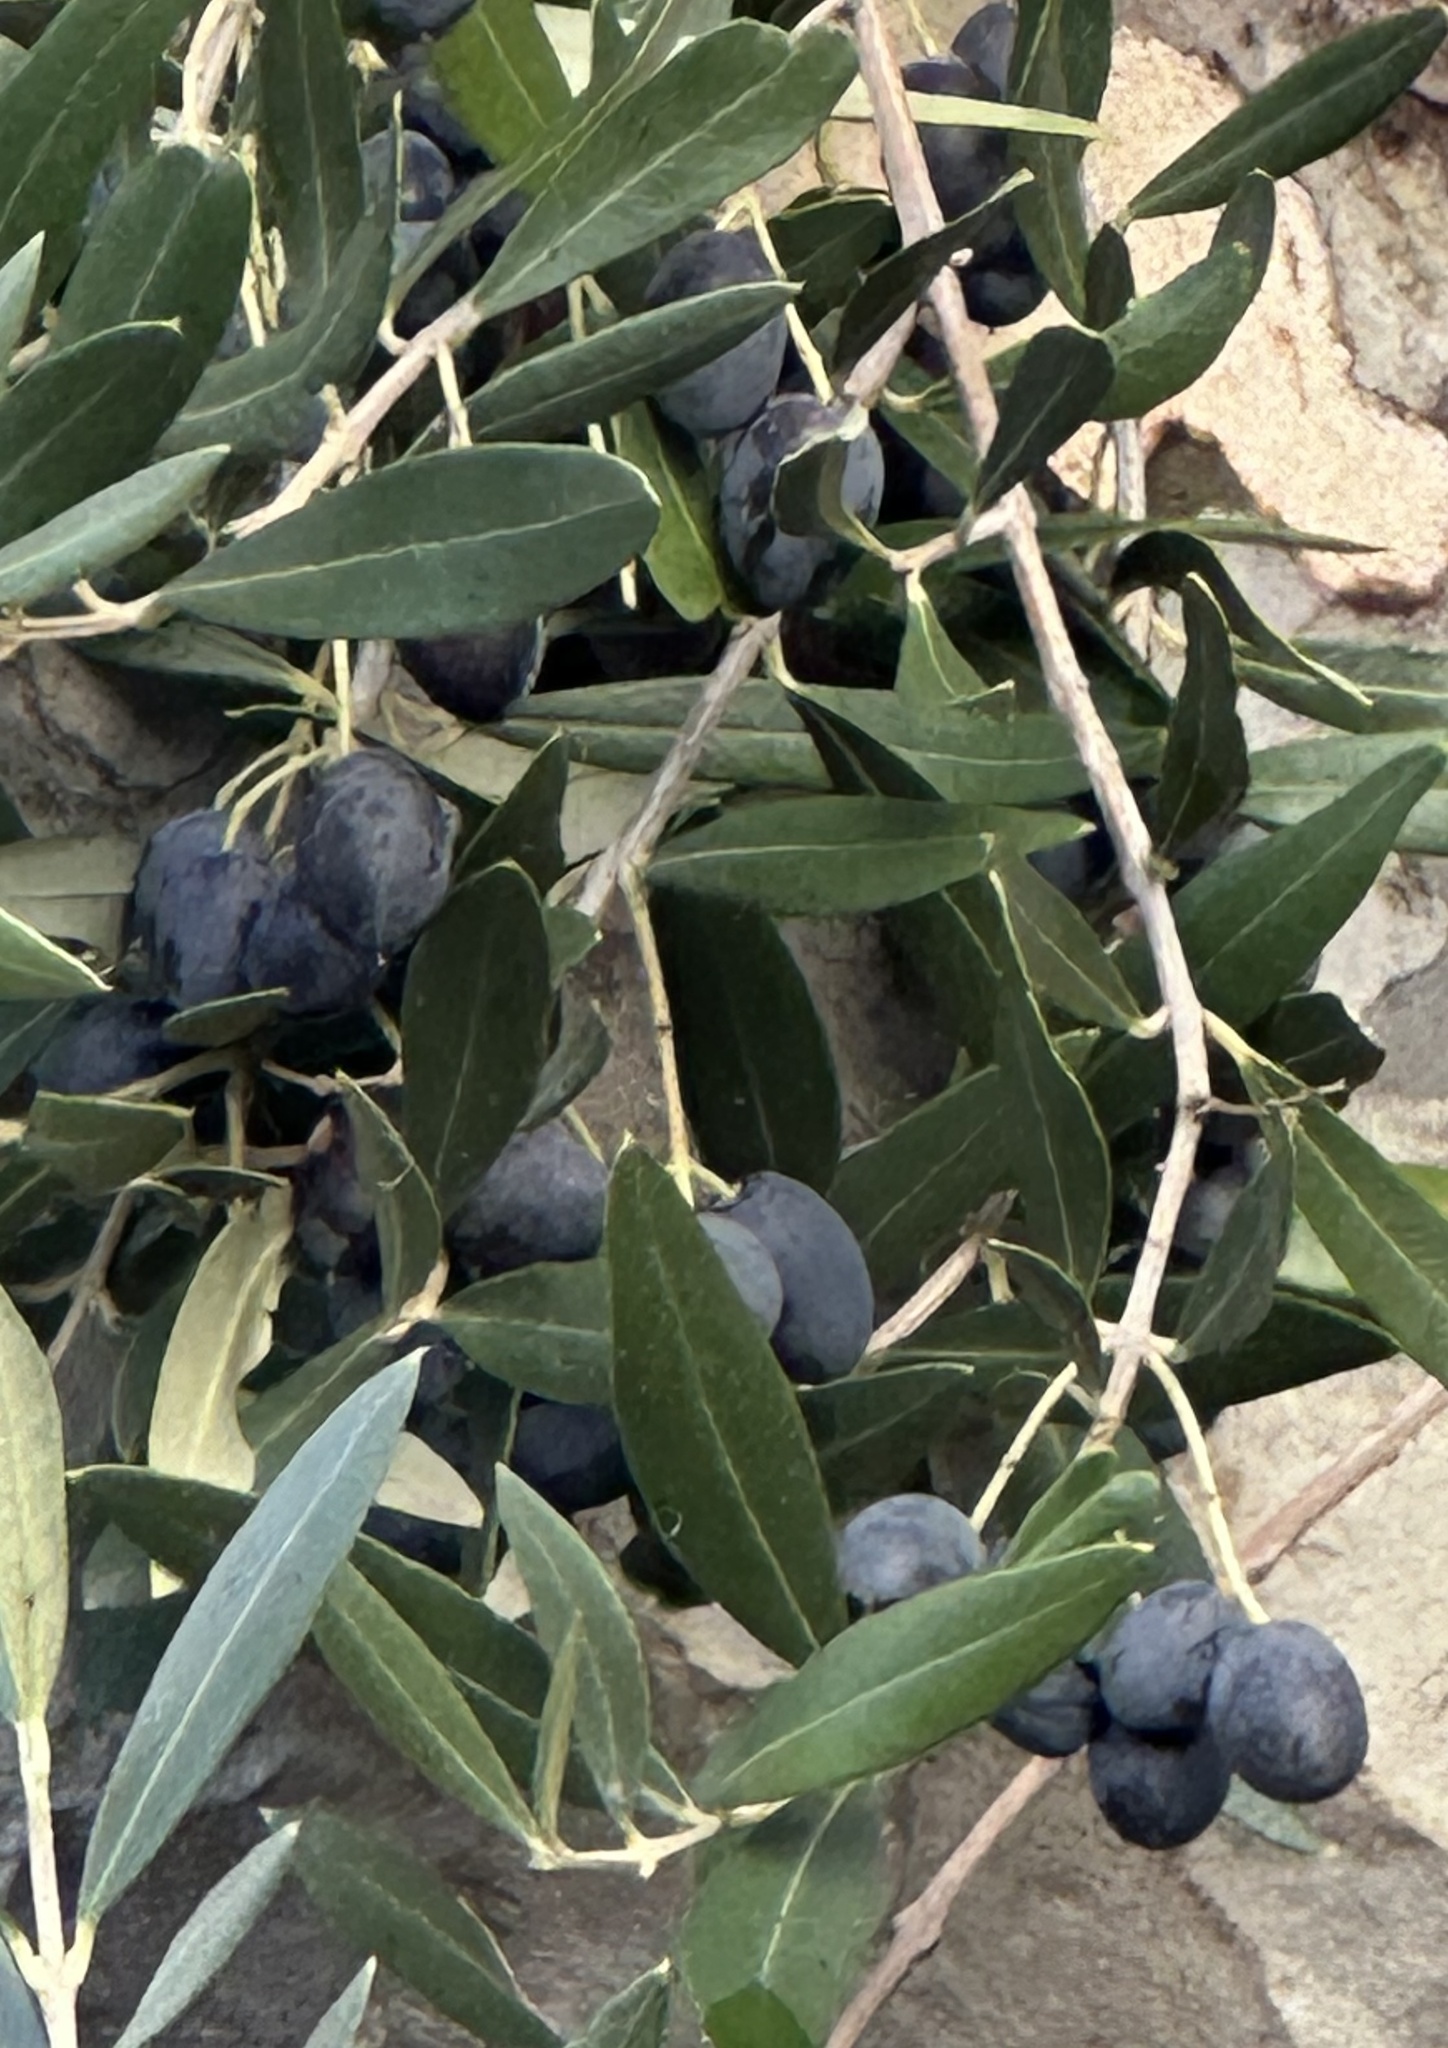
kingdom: Plantae
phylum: Tracheophyta
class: Magnoliopsida
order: Lamiales
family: Oleaceae
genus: Olea
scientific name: Olea europaea
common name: Olive
